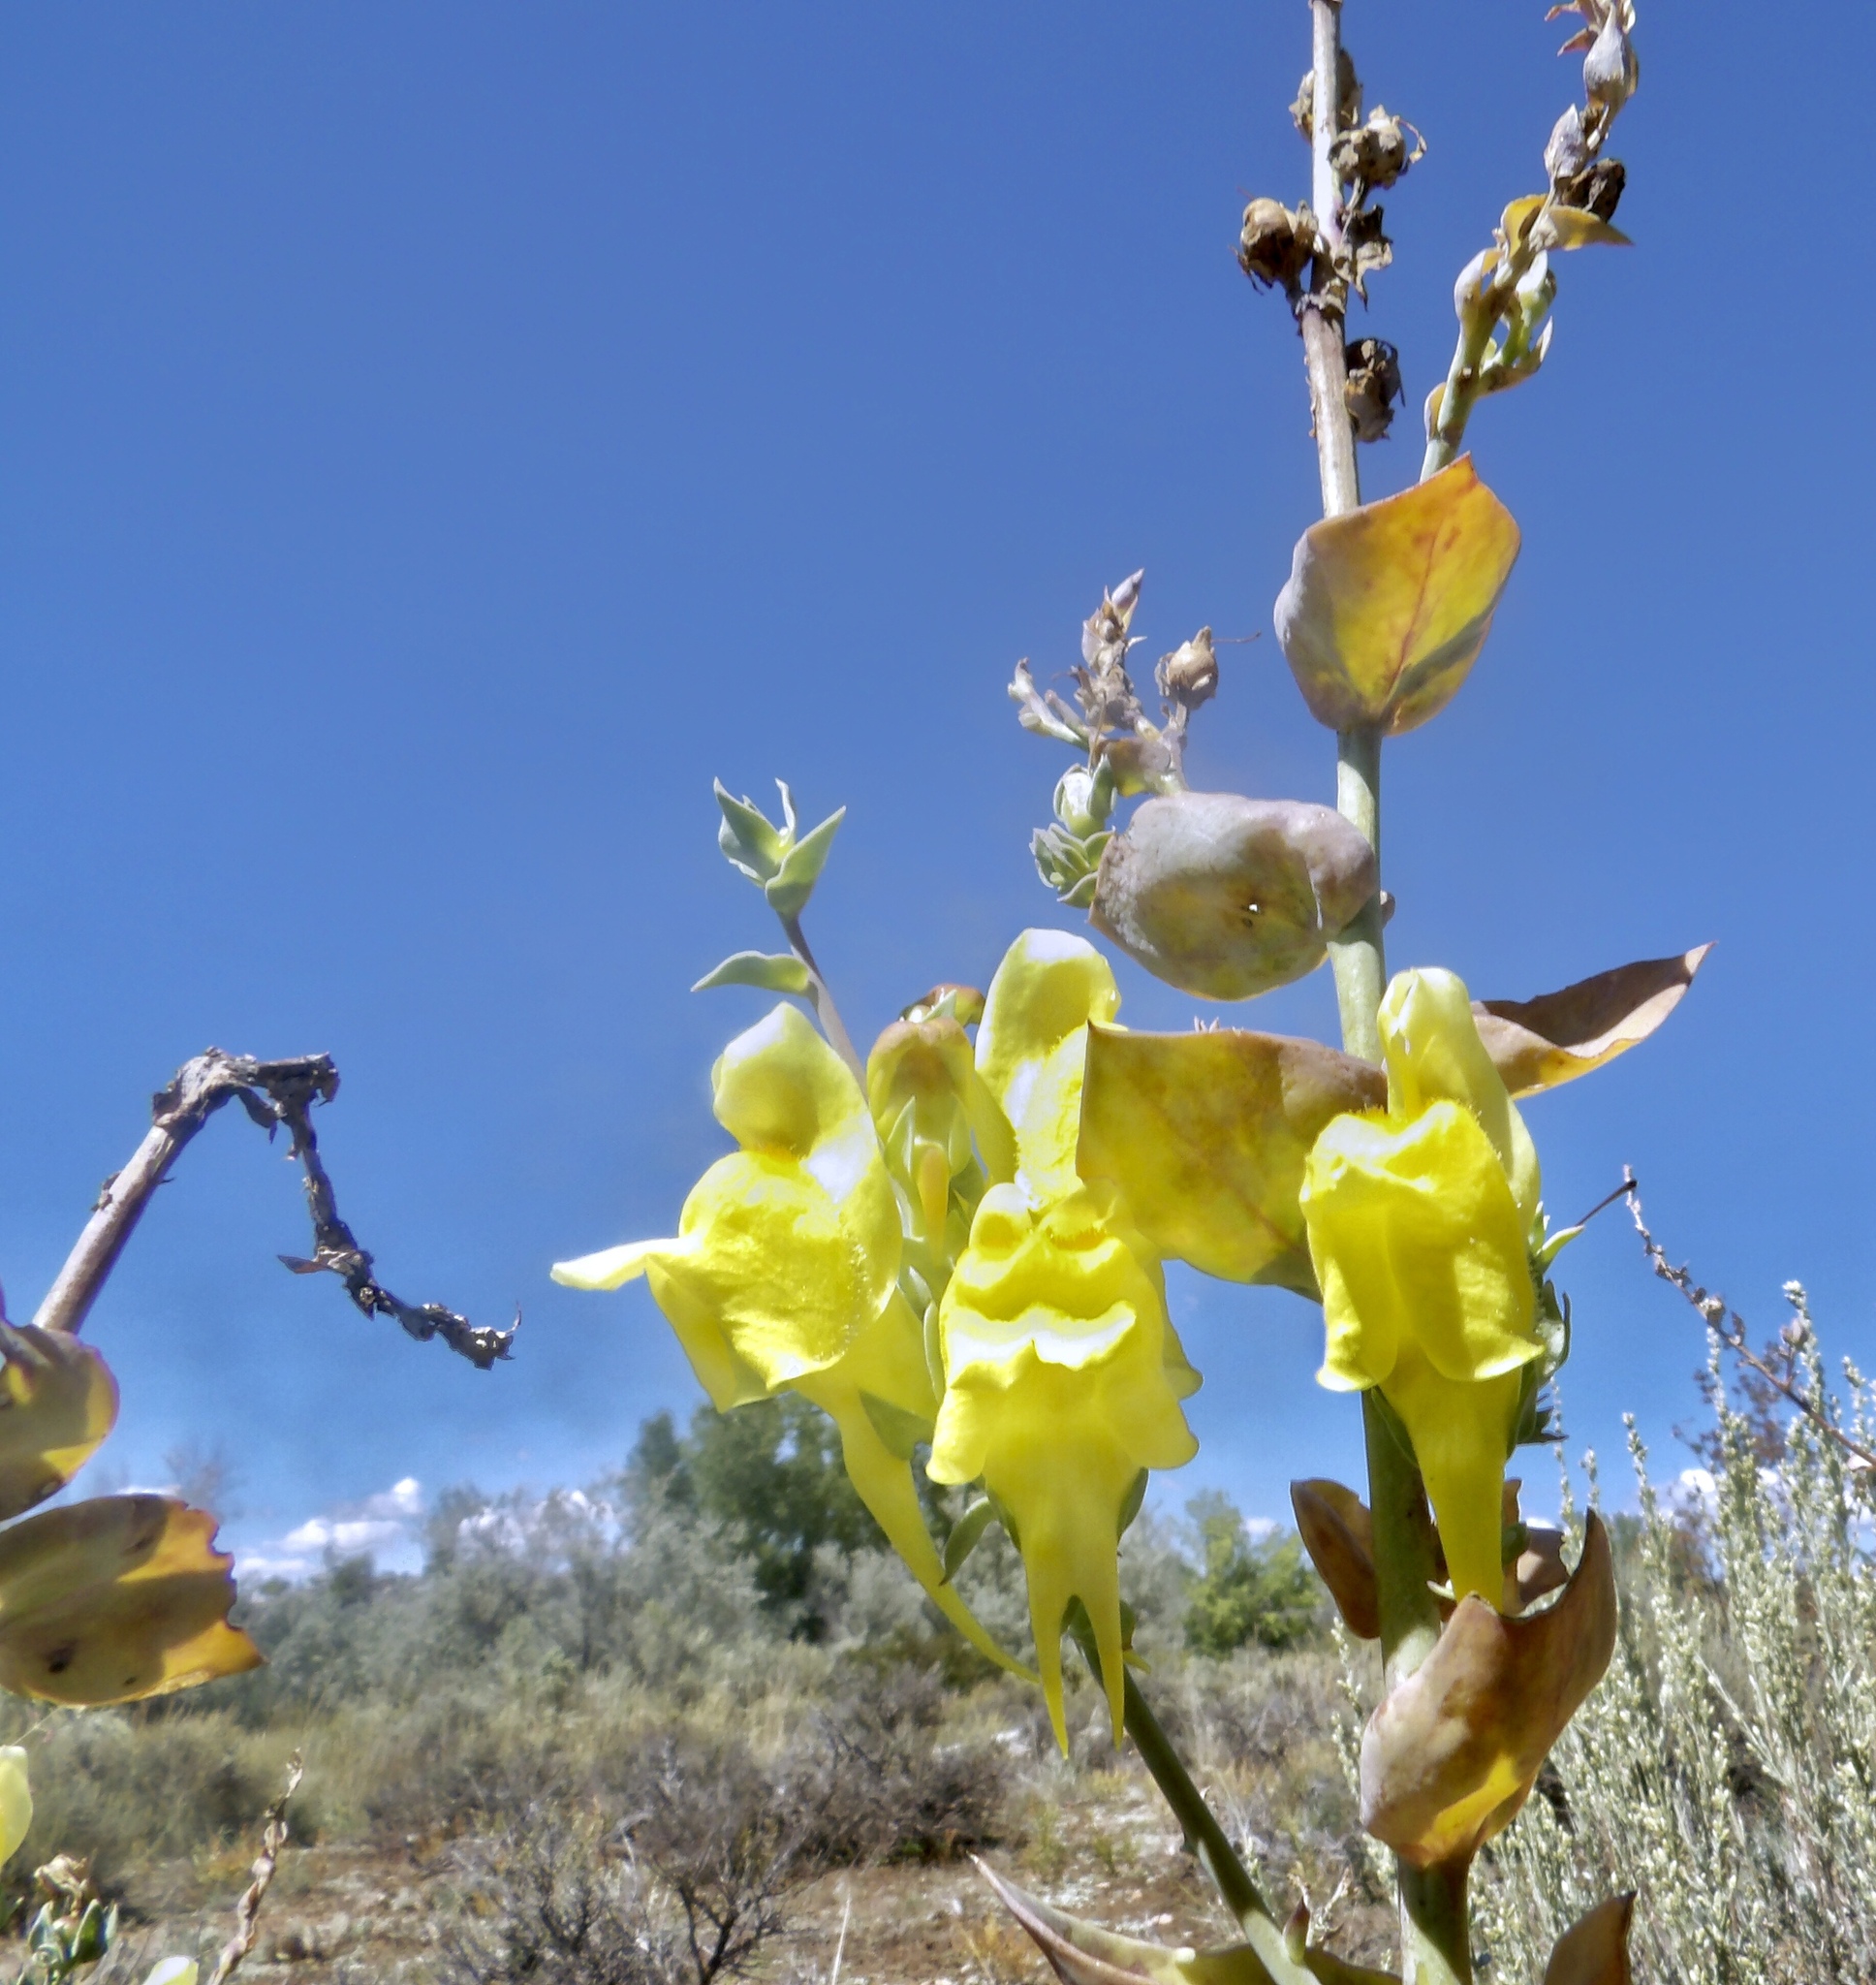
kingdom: Plantae
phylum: Tracheophyta
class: Magnoliopsida
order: Lamiales
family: Plantaginaceae
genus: Linaria
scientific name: Linaria dalmatica
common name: Dalmatian toadflax
